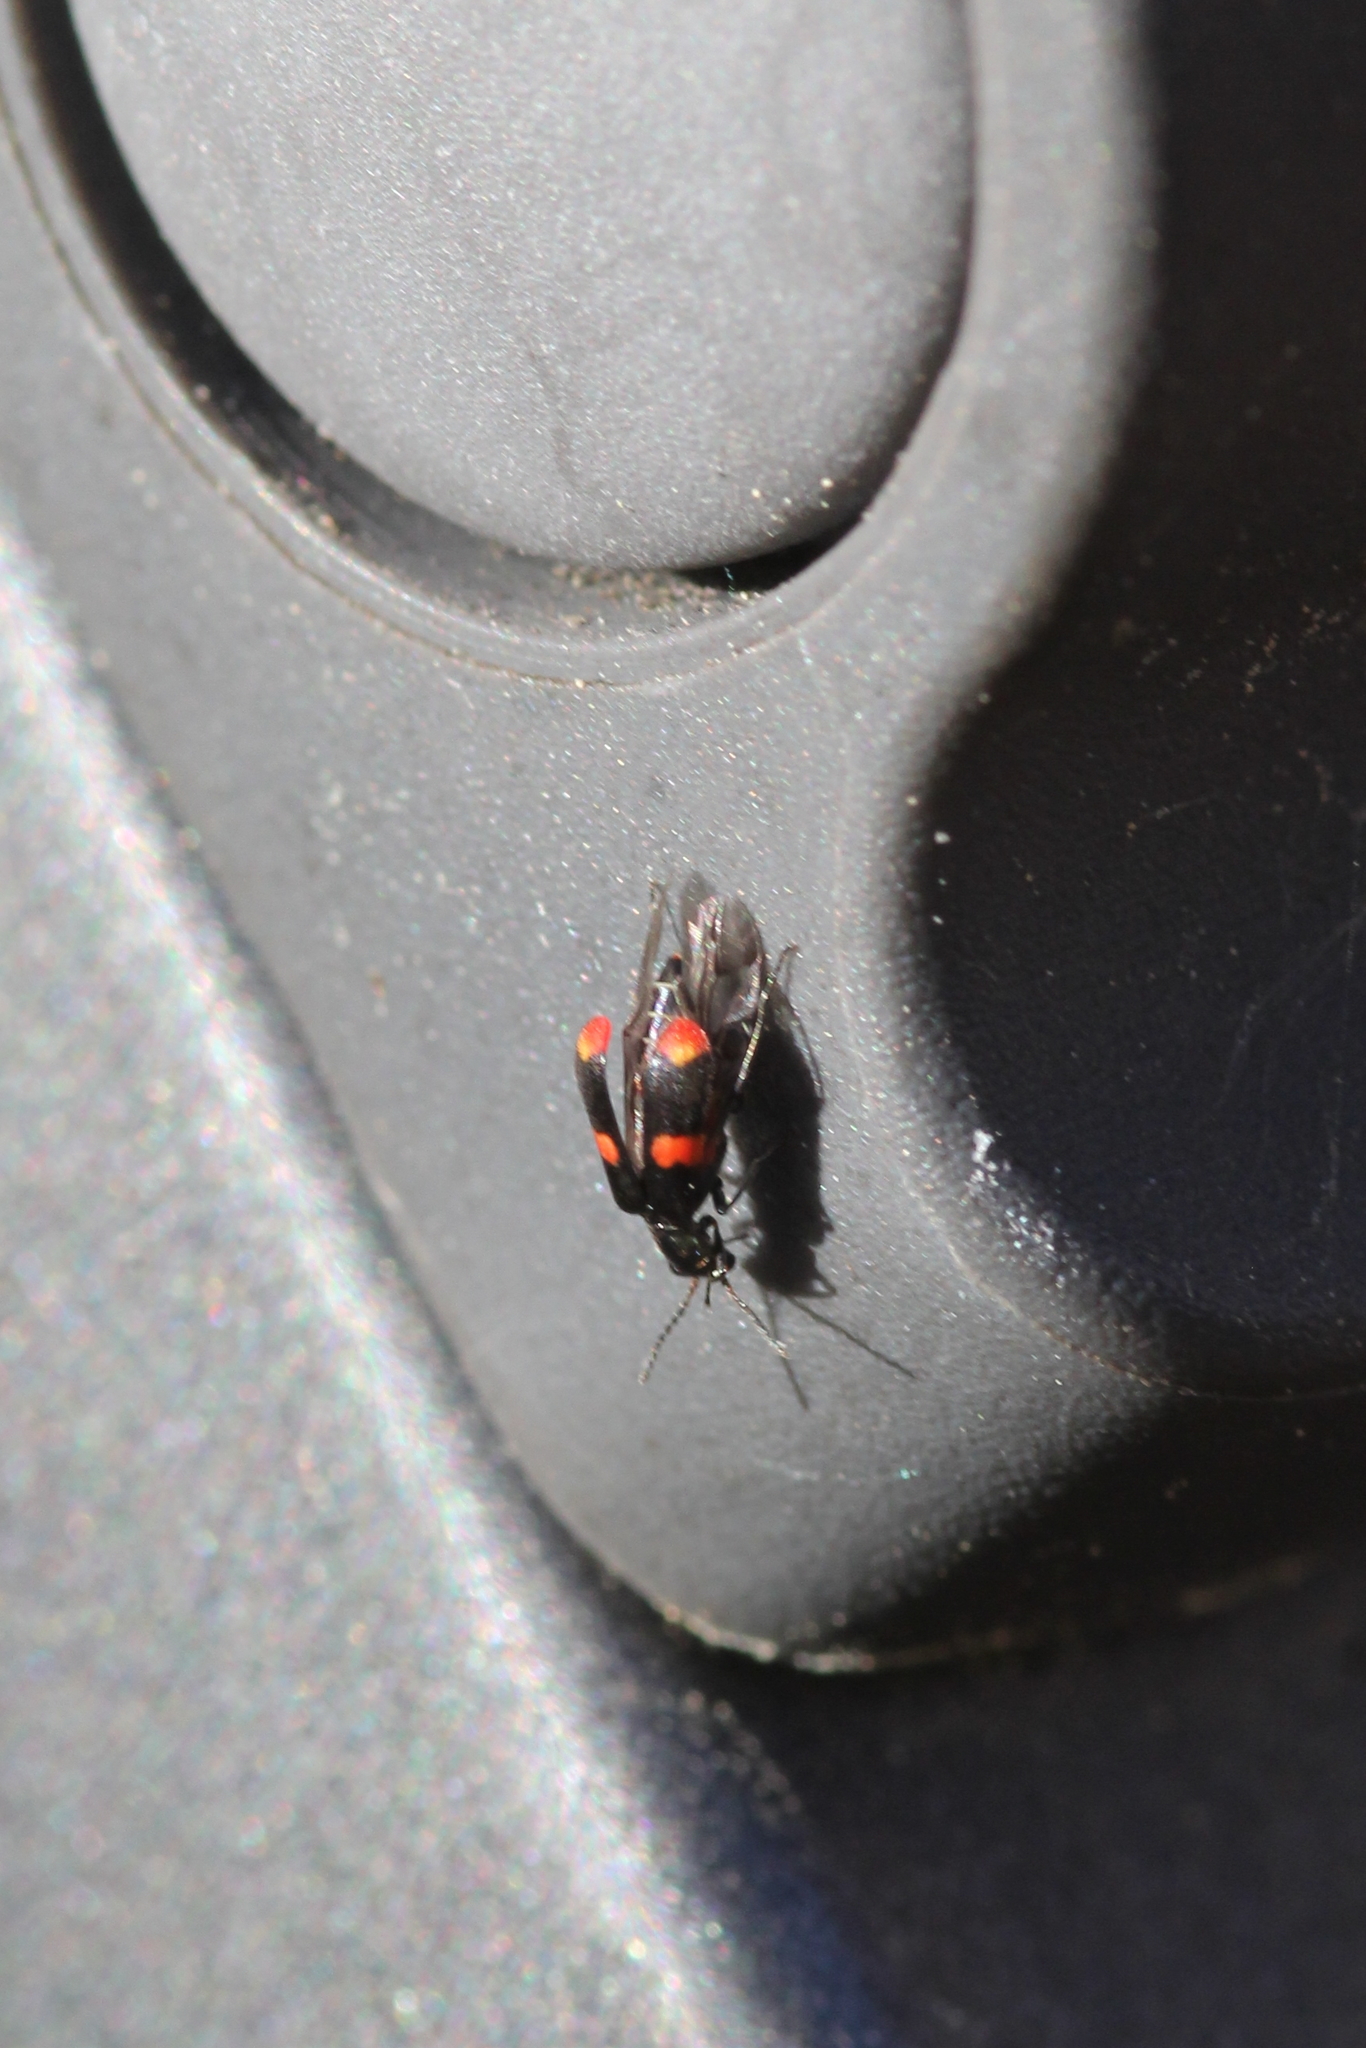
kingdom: Animalia
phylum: Arthropoda
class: Insecta
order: Coleoptera
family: Melyridae
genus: Anthocomus
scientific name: Anthocomus fasciatus
